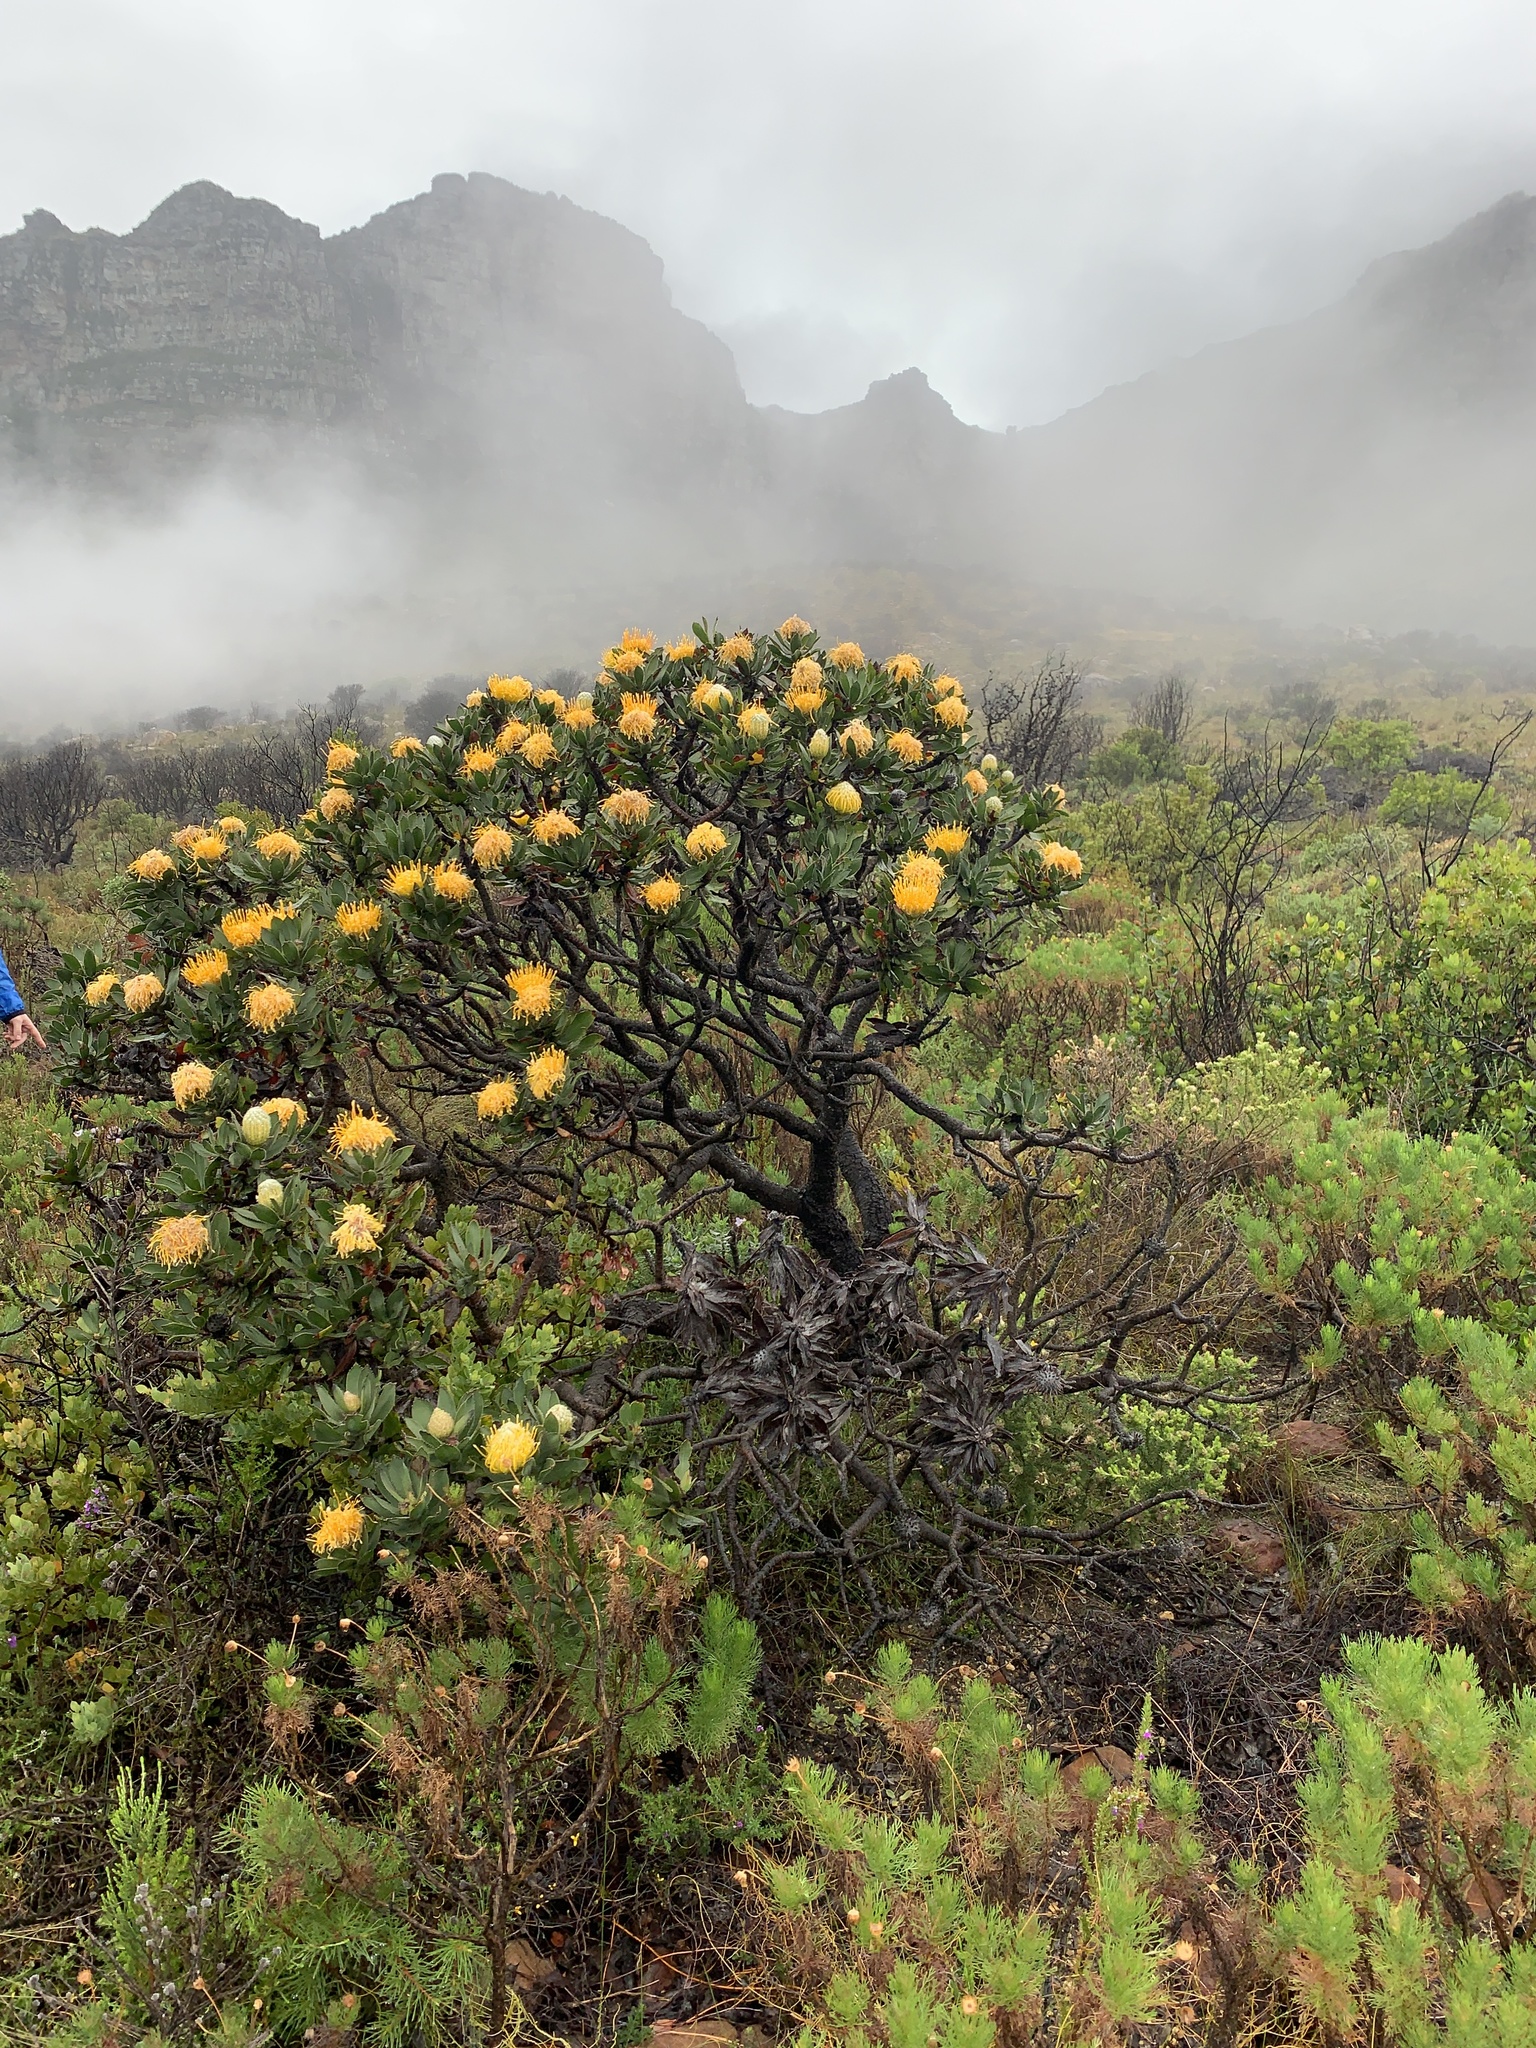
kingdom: Plantae
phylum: Tracheophyta
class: Magnoliopsida
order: Proteales
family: Proteaceae
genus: Leucospermum
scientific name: Leucospermum conocarpodendron
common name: Tree pincushion
